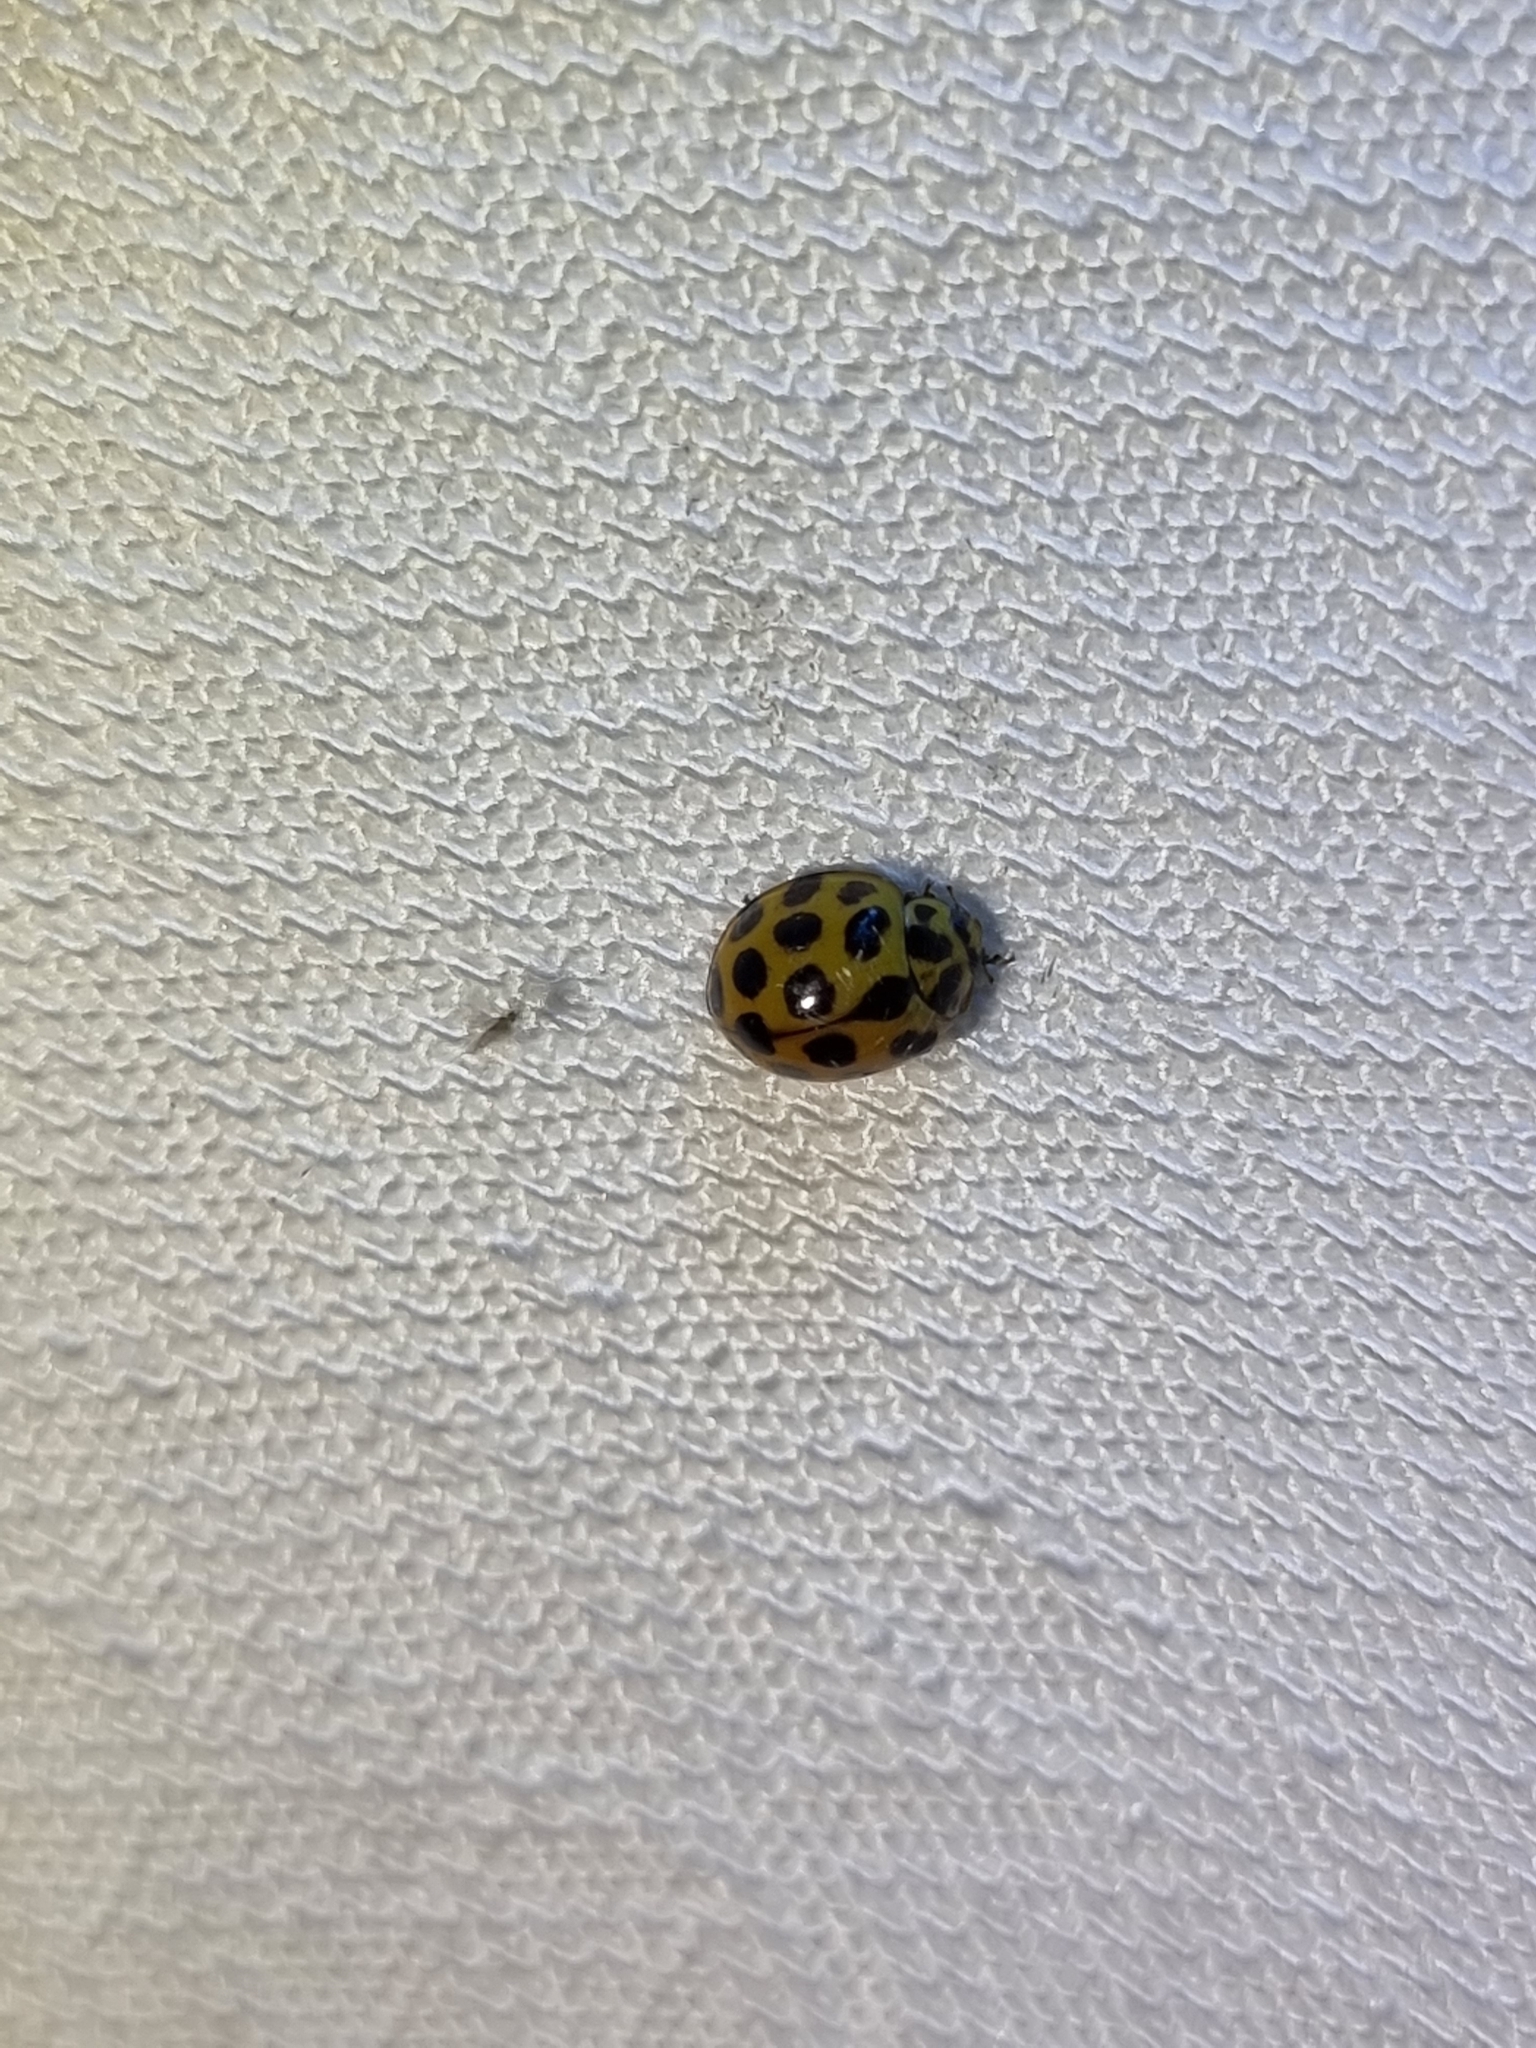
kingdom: Animalia
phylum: Arthropoda
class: Insecta
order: Coleoptera
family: Coccinellidae
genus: Harmonia
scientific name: Harmonia conformis
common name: Common spotted ladybird beetle
